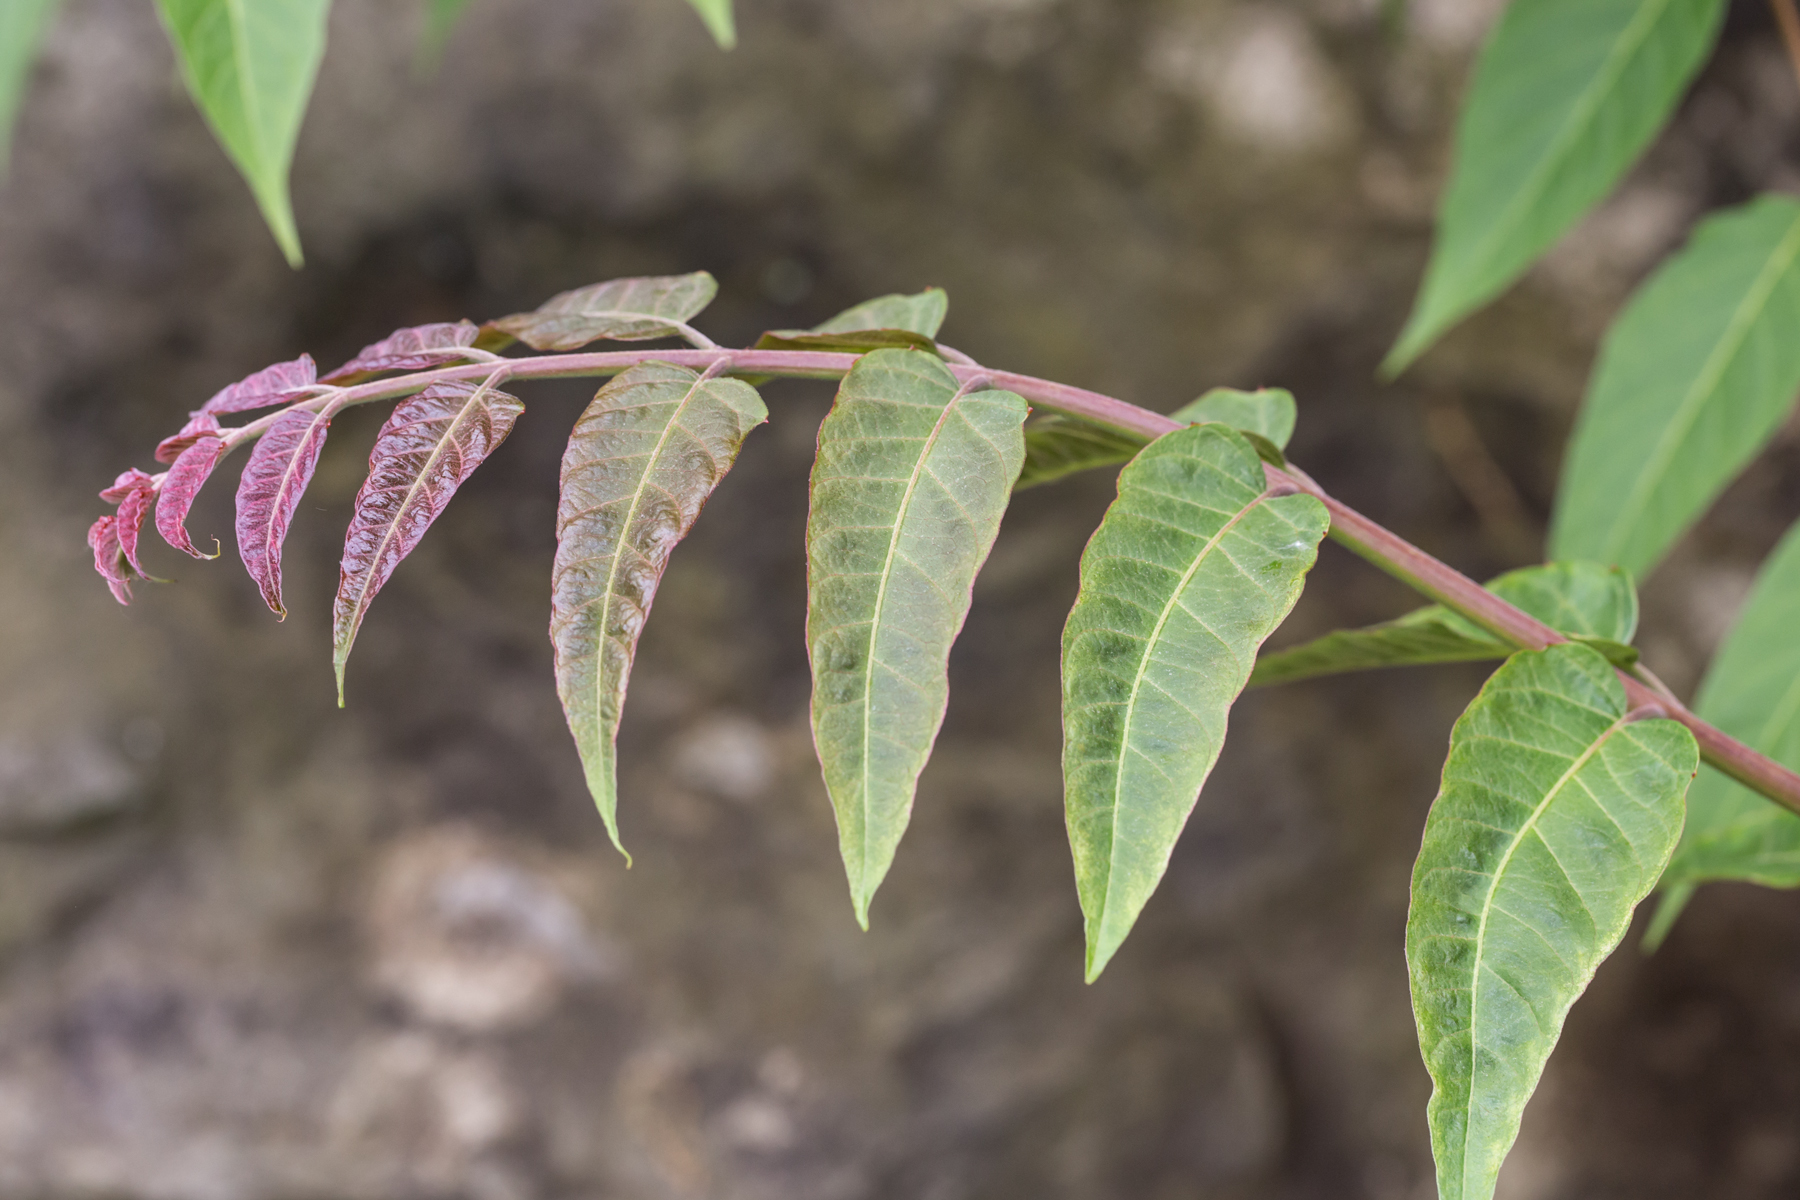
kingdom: Plantae
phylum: Tracheophyta
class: Magnoliopsida
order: Sapindales
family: Simaroubaceae
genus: Ailanthus
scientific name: Ailanthus altissima
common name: Tree-of-heaven
